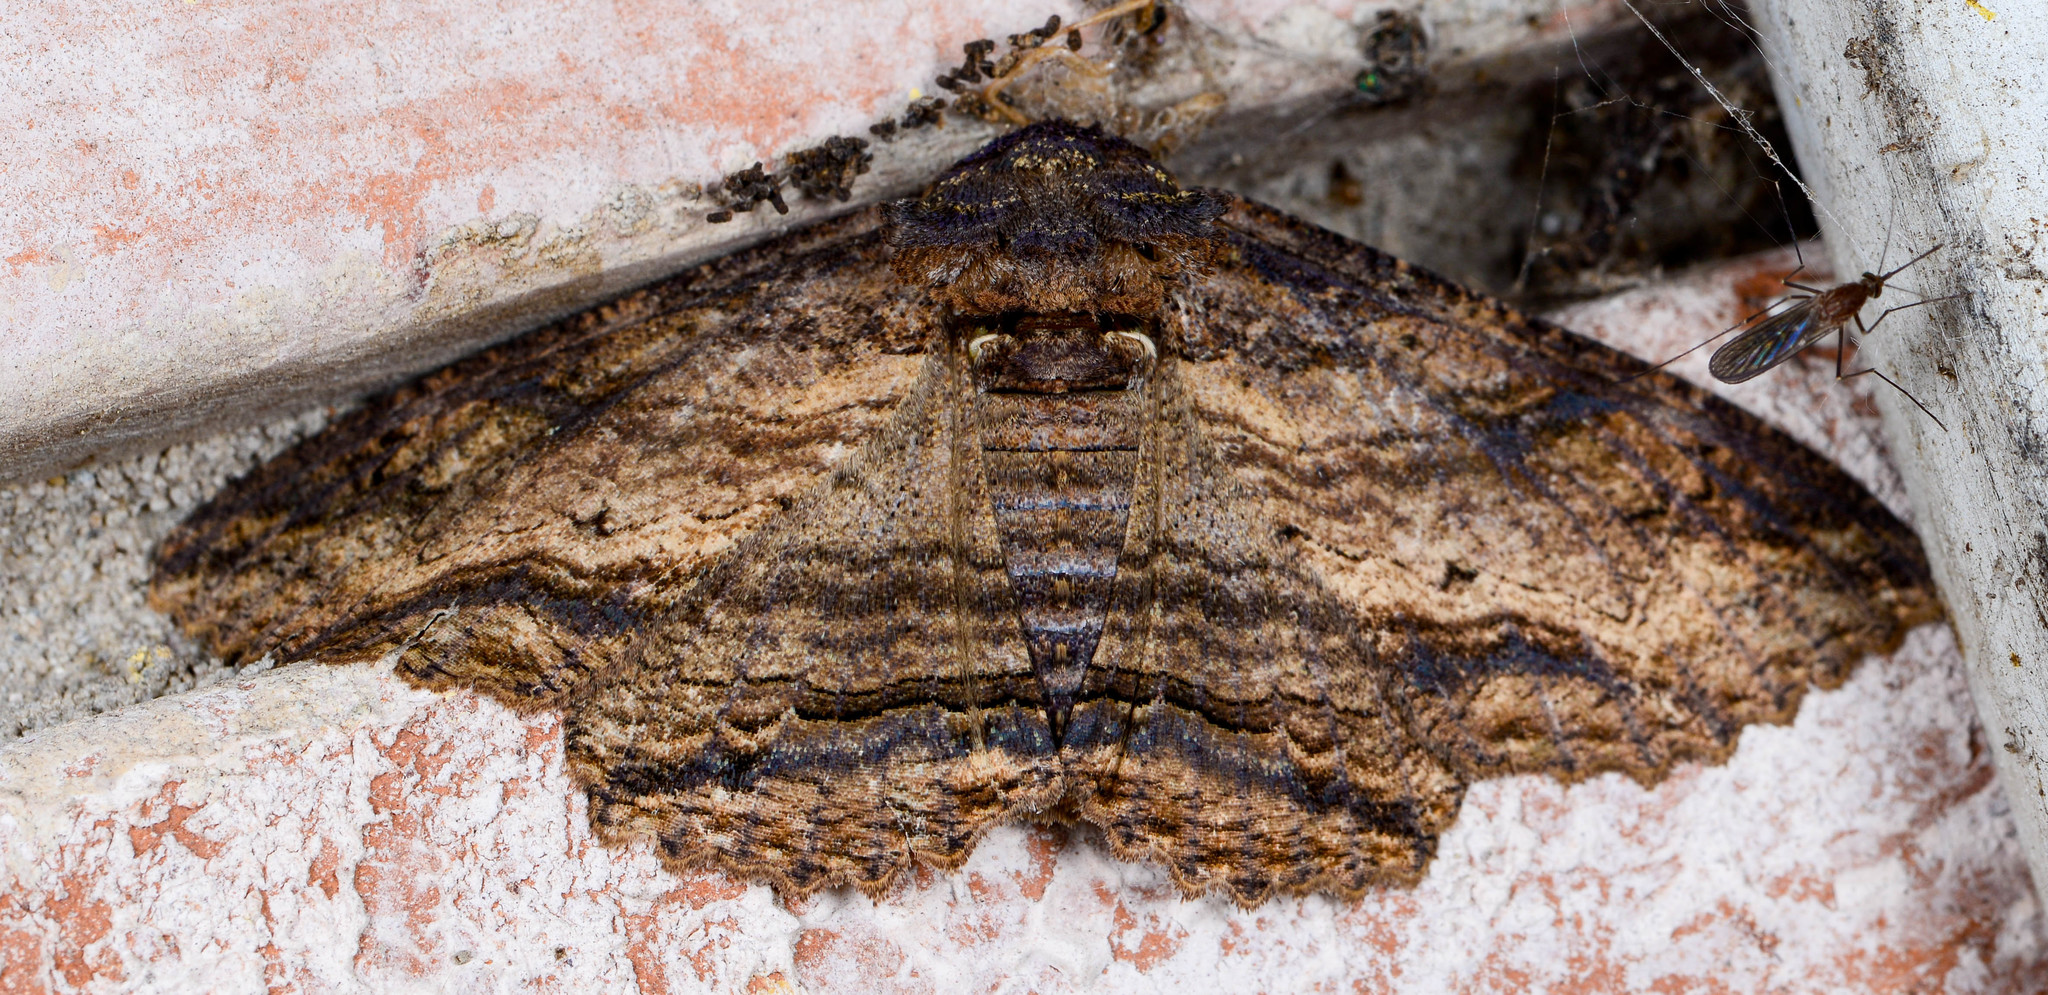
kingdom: Animalia
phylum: Arthropoda
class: Insecta
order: Lepidoptera
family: Erebidae
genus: Zale
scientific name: Zale lunata
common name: Lunate zale moth
